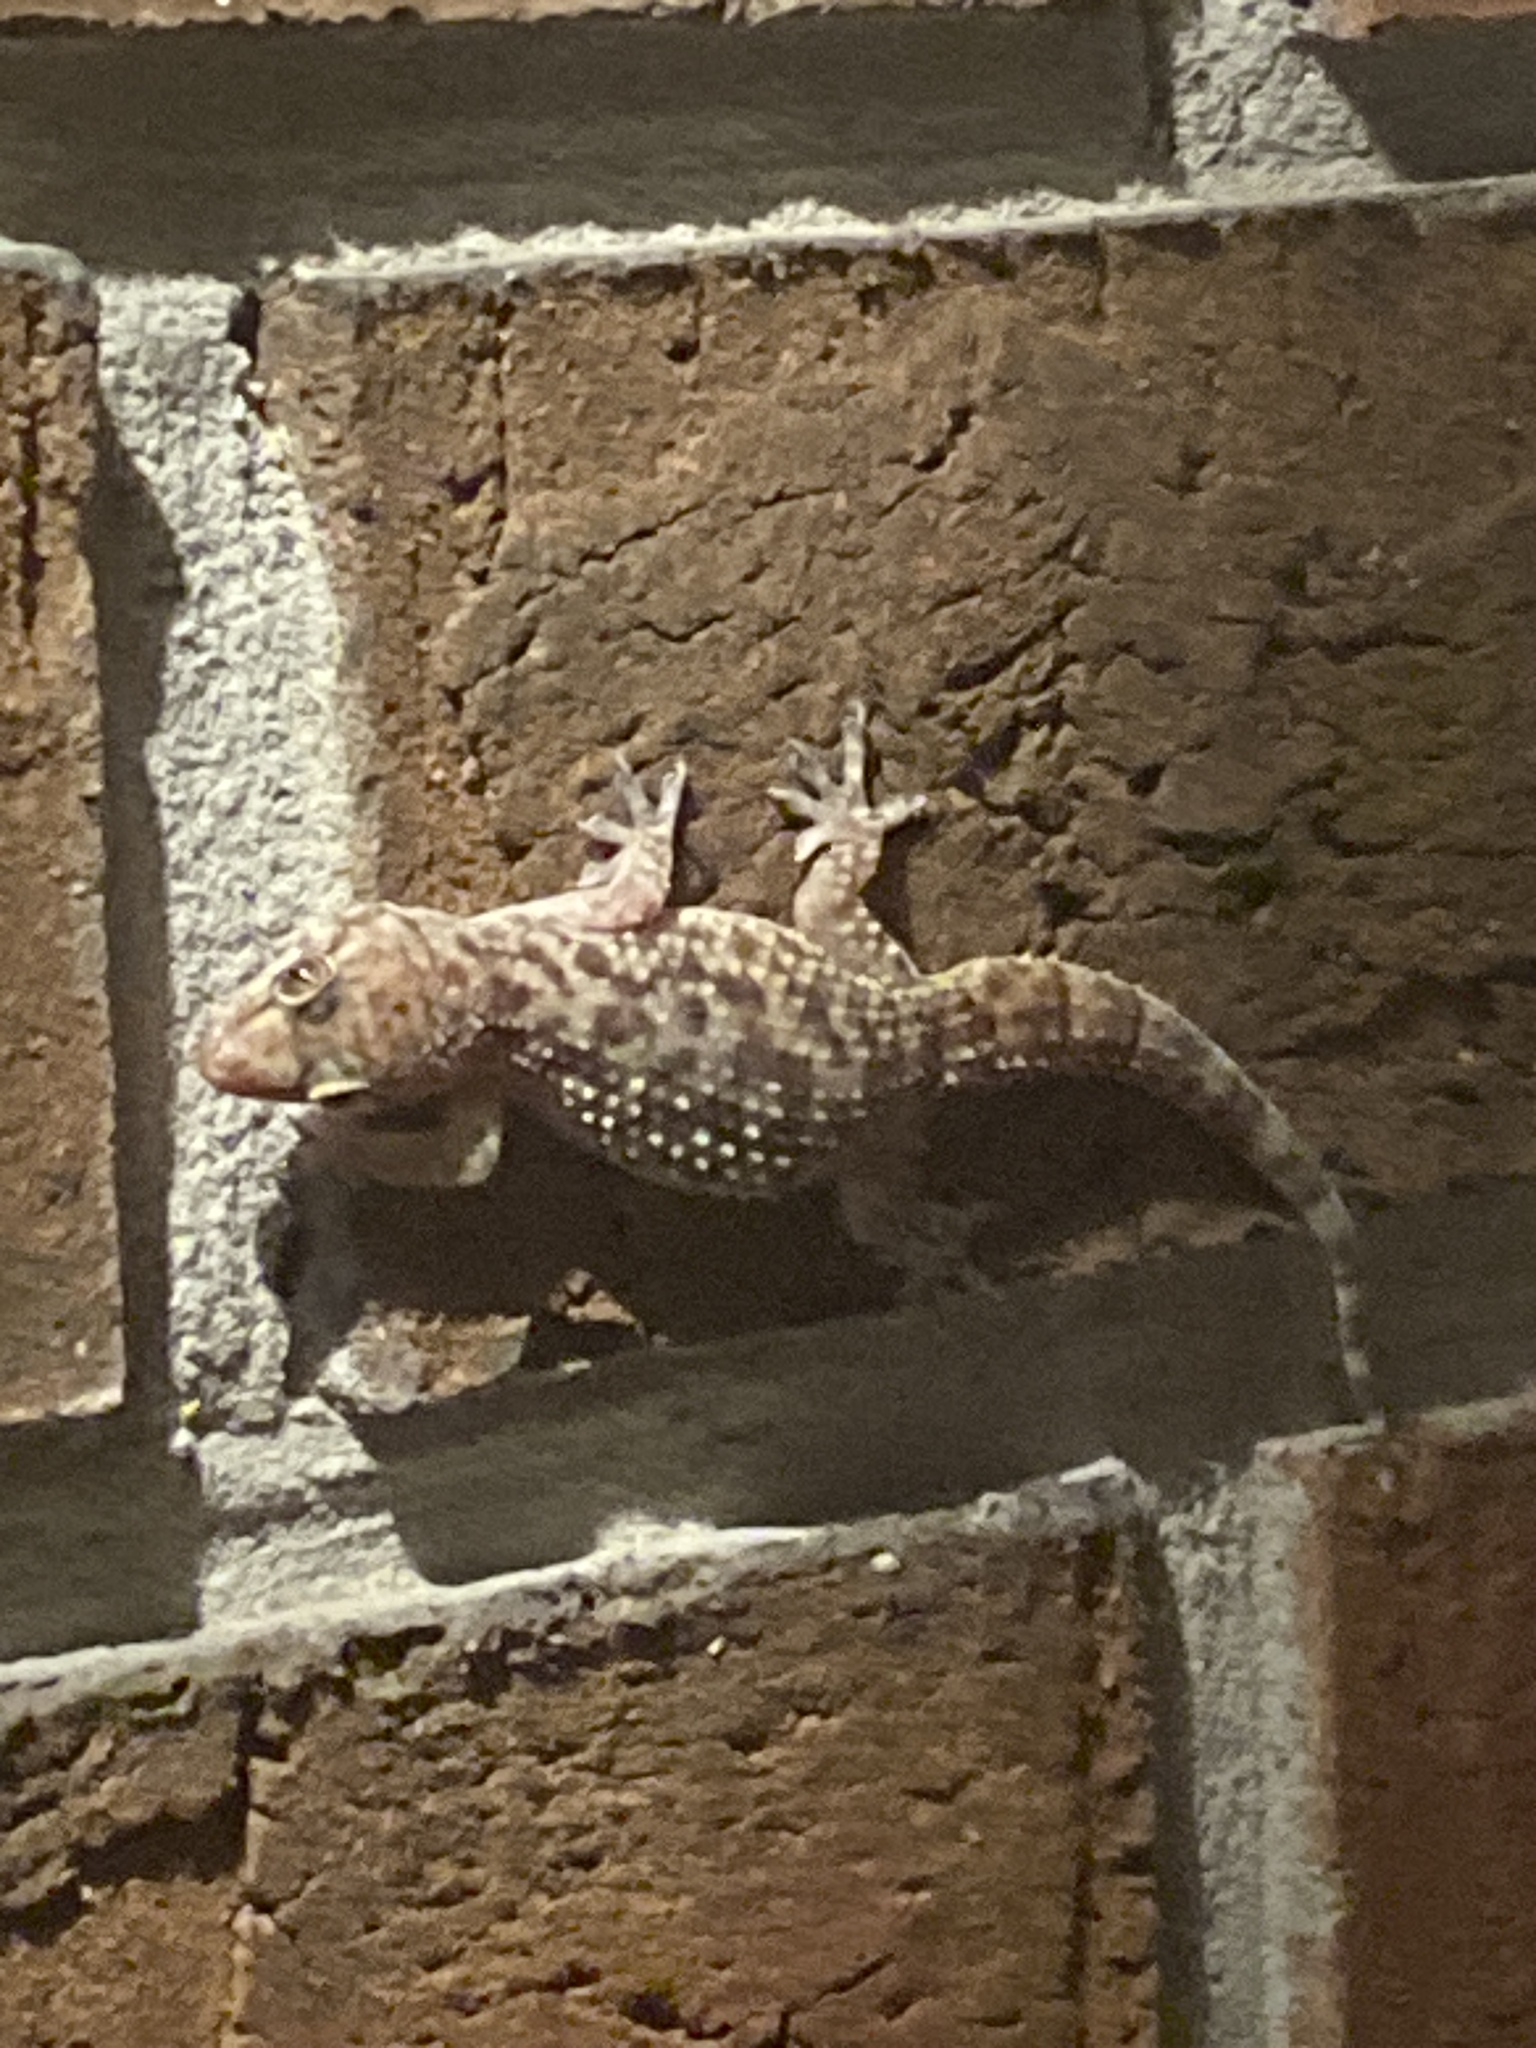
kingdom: Animalia
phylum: Chordata
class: Squamata
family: Gekkonidae
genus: Hemidactylus
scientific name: Hemidactylus turcicus
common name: Turkish gecko
